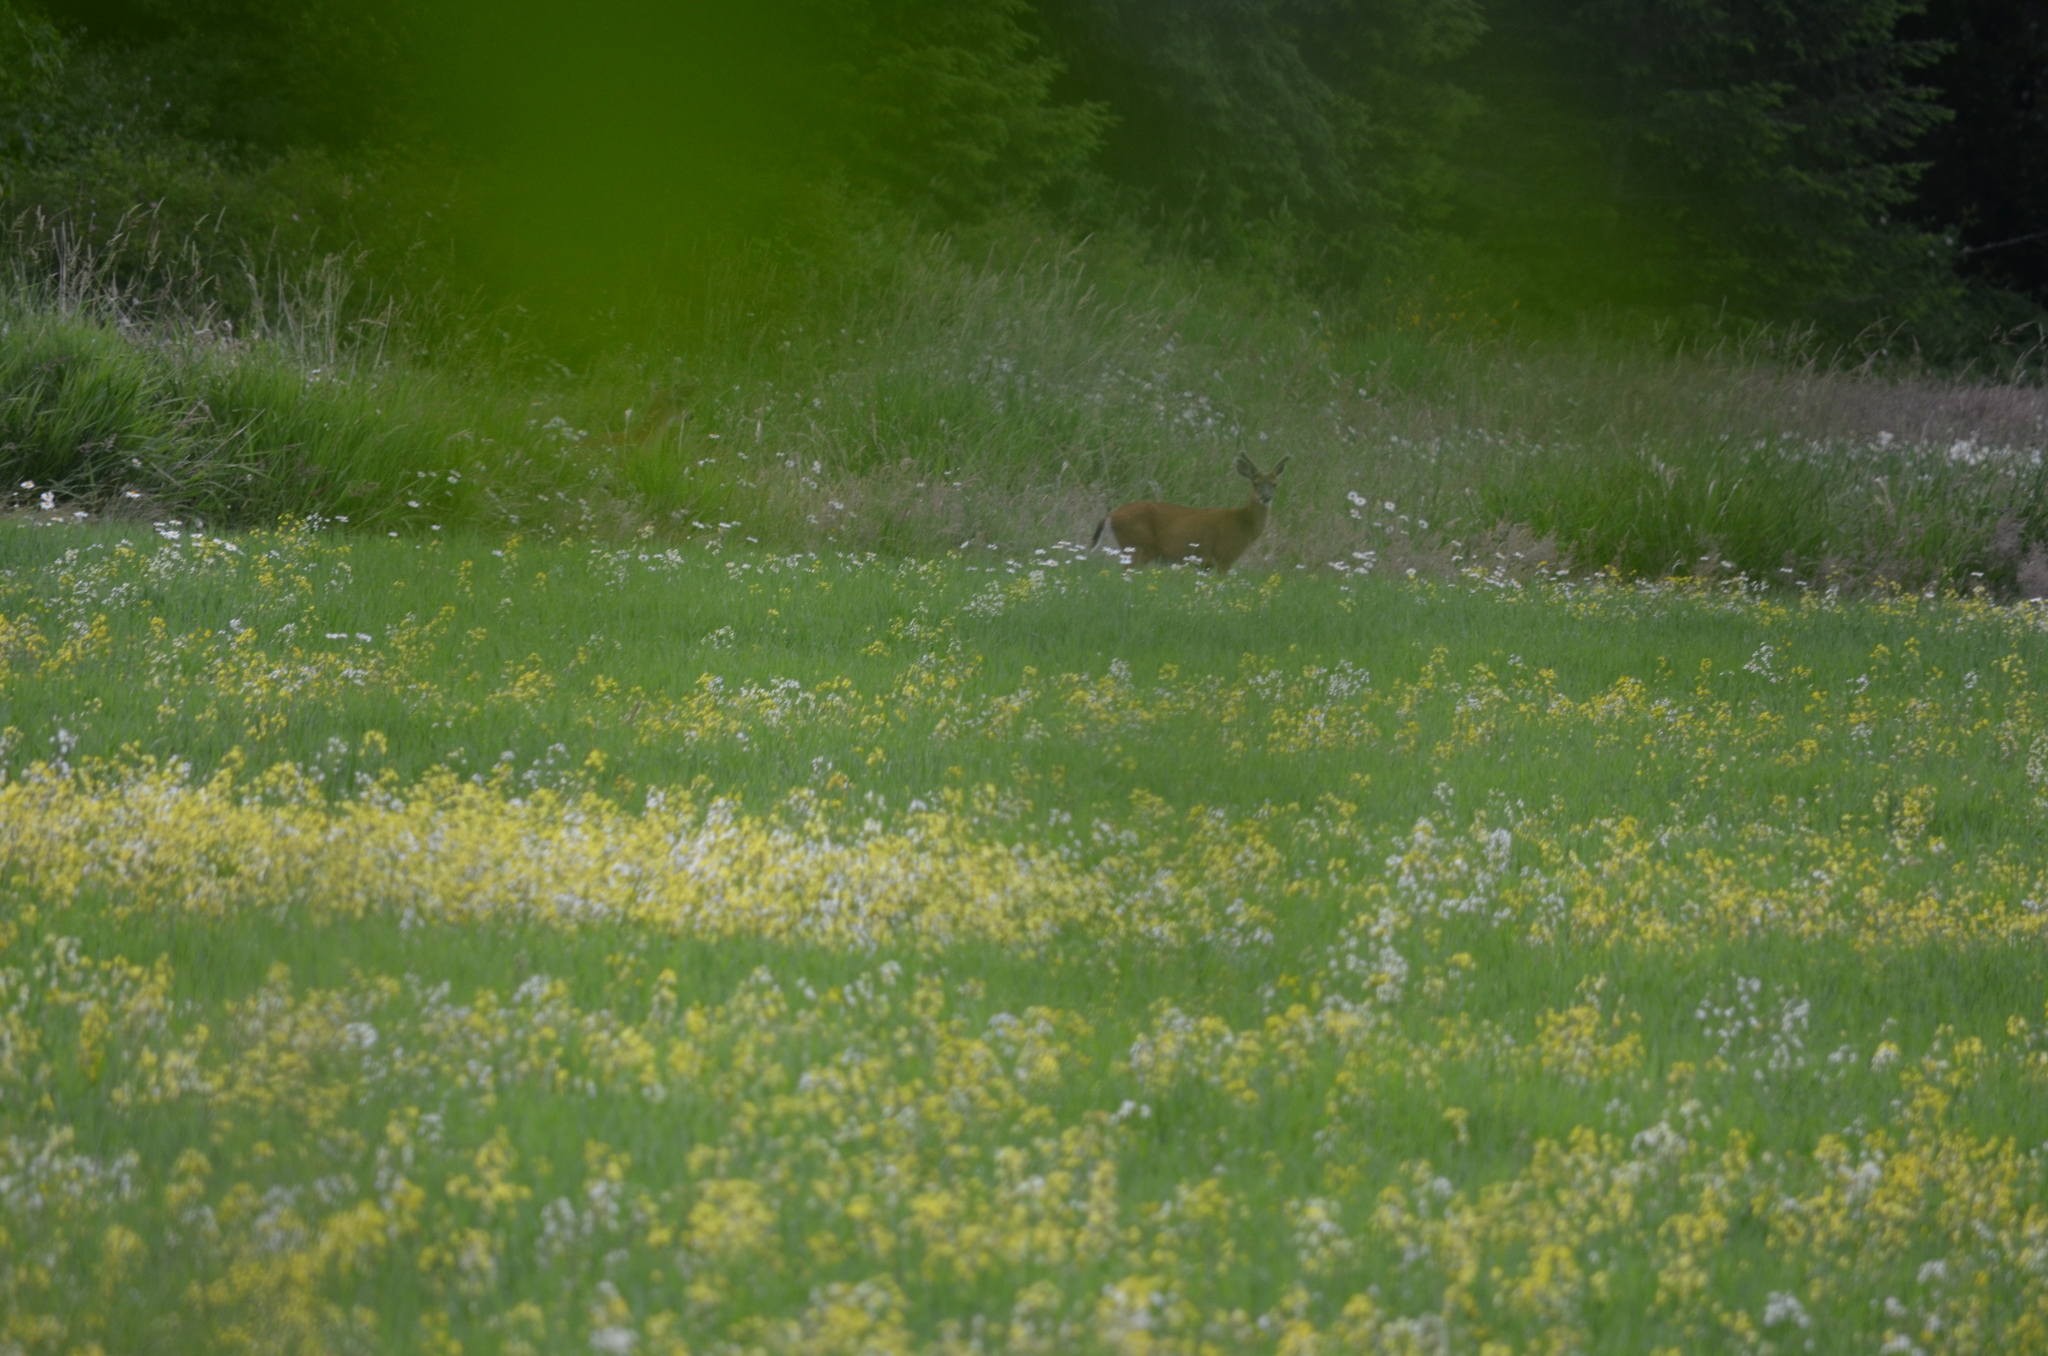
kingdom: Animalia
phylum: Chordata
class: Mammalia
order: Artiodactyla
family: Cervidae
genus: Odocoileus
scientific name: Odocoileus hemionus
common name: Mule deer
